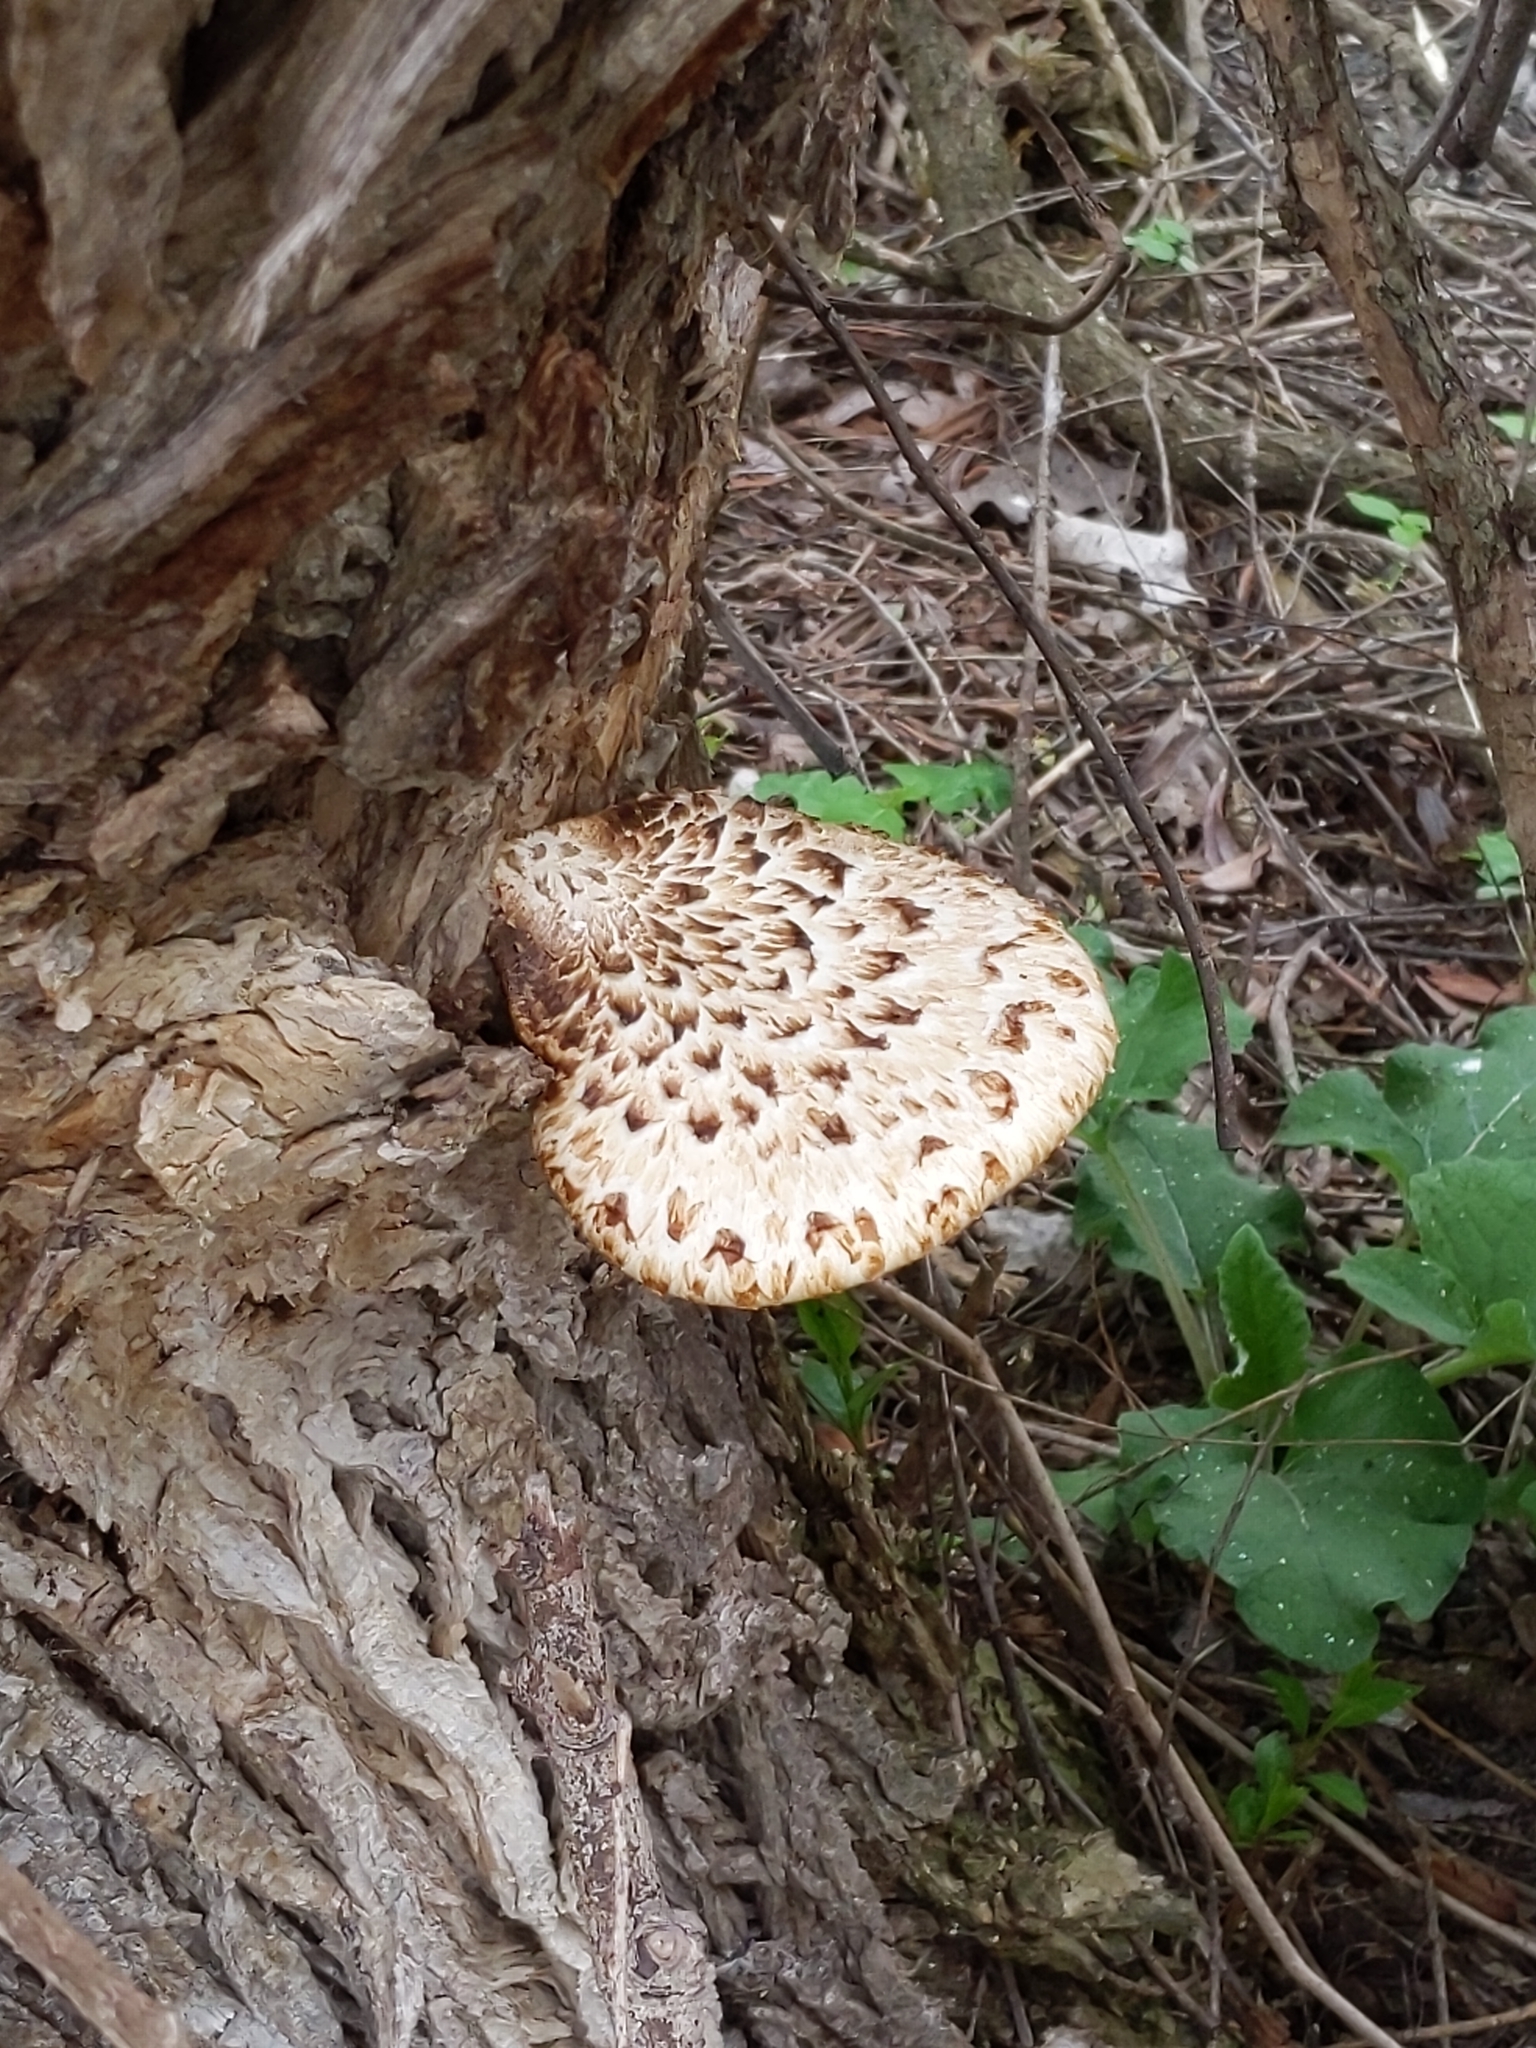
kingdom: Fungi
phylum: Basidiomycota
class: Agaricomycetes
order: Polyporales
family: Polyporaceae
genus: Cerioporus
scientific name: Cerioporus squamosus
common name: Dryad's saddle
